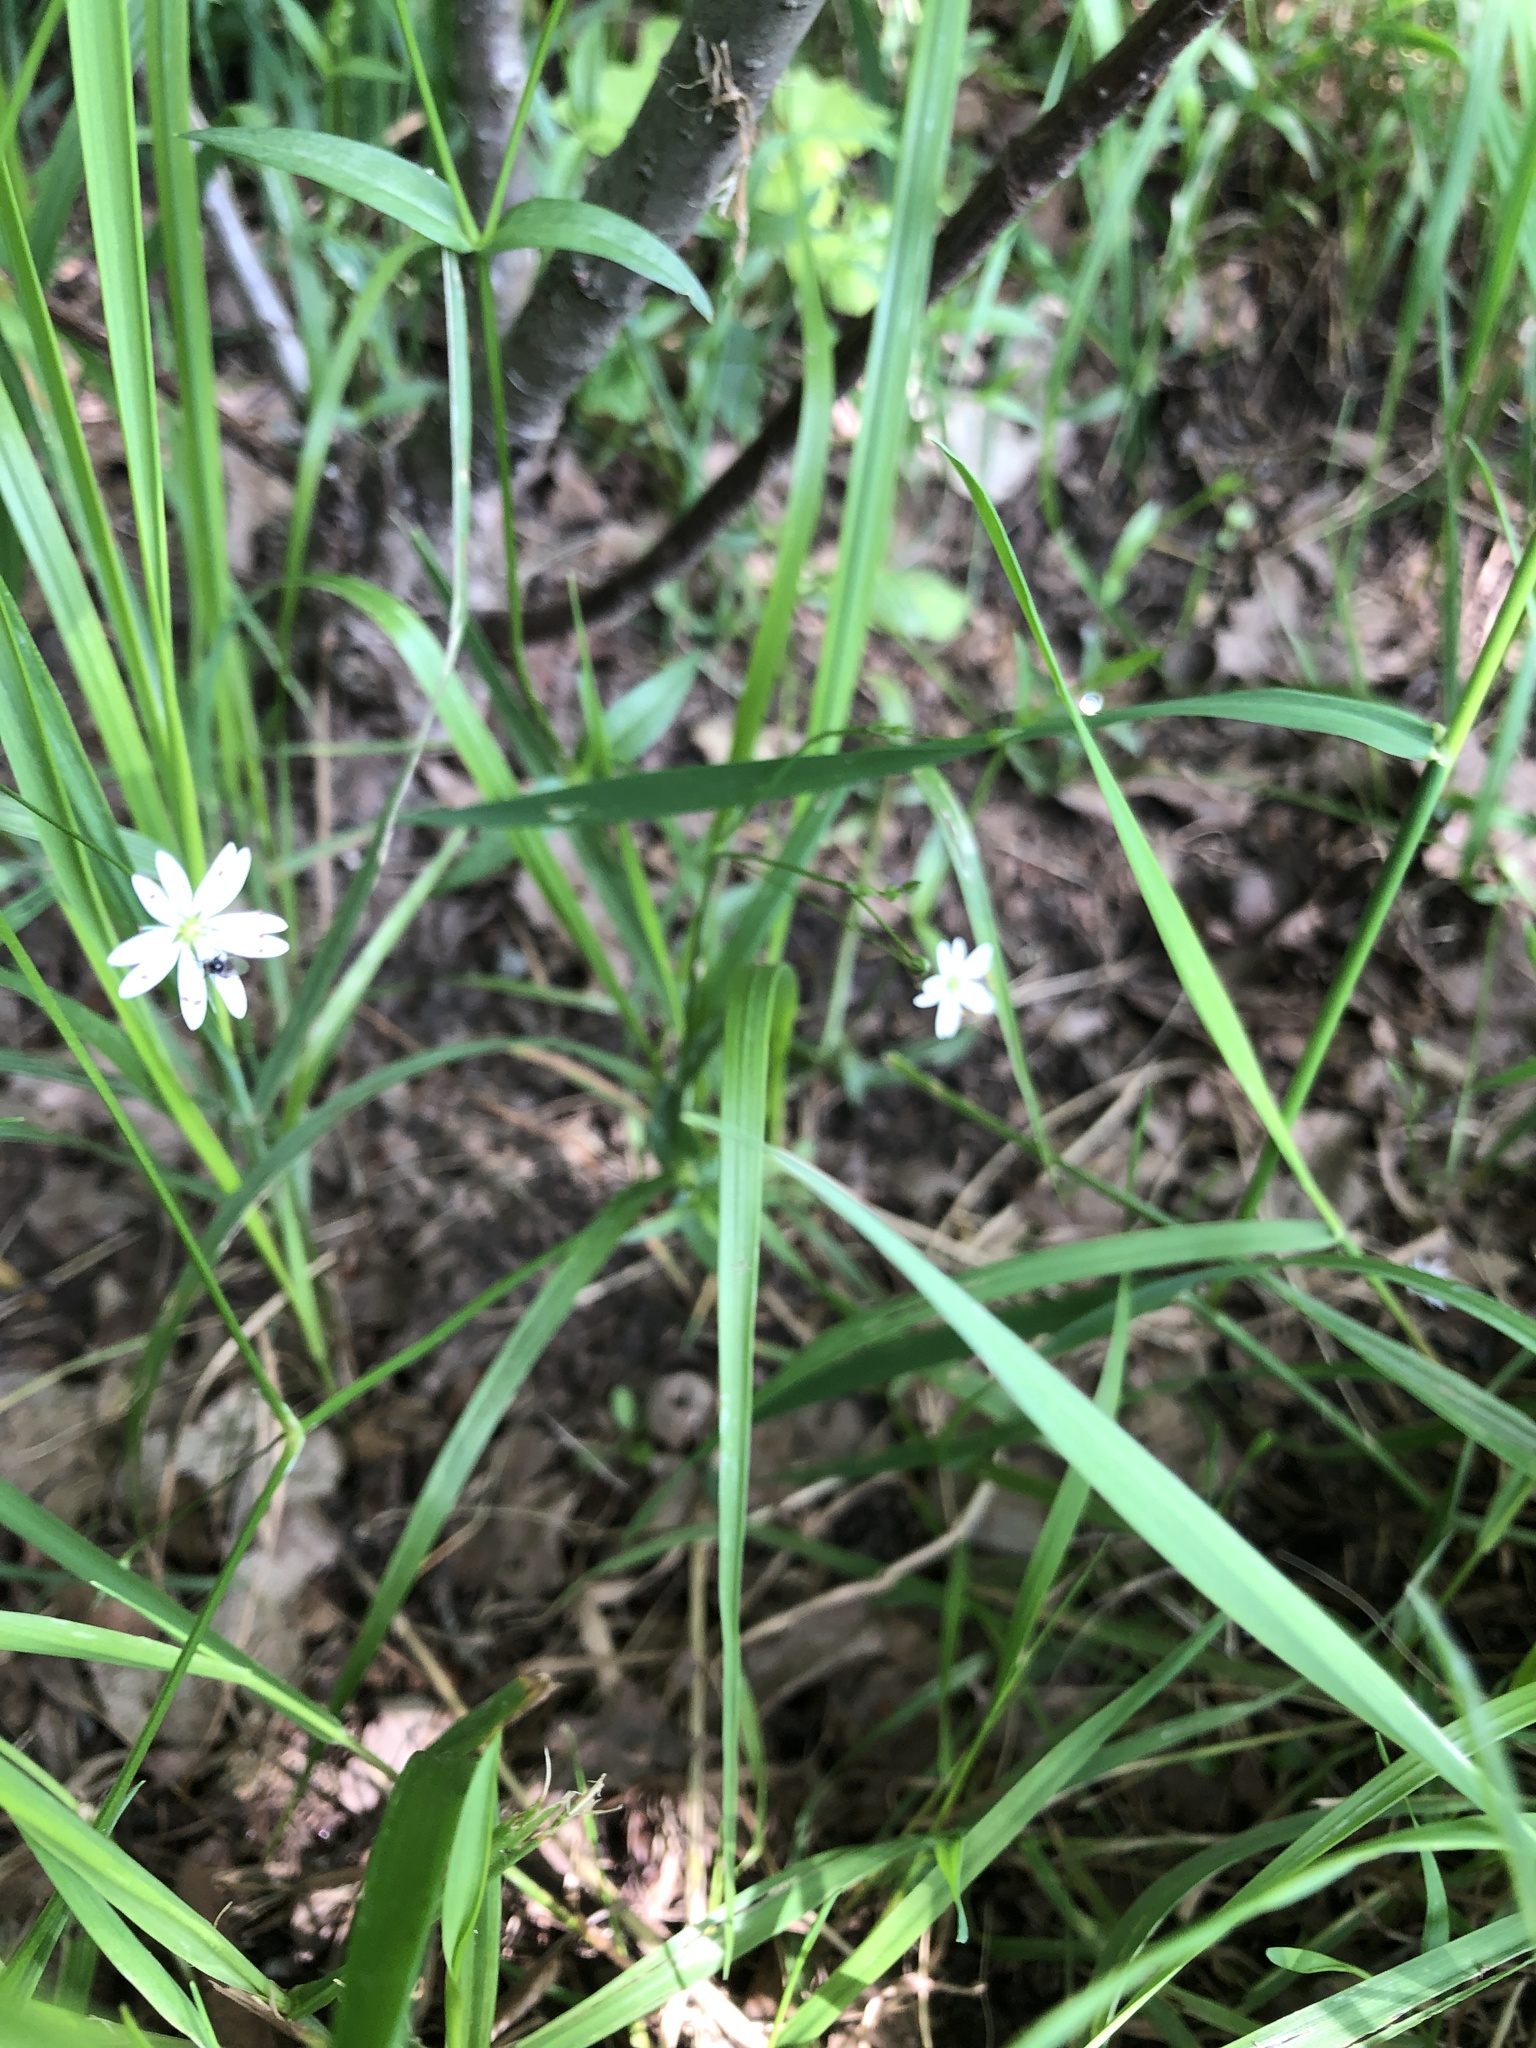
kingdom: Plantae
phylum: Tracheophyta
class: Magnoliopsida
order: Caryophyllales
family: Caryophyllaceae
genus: Stellaria
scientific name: Stellaria graminea
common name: Grass-like starwort
